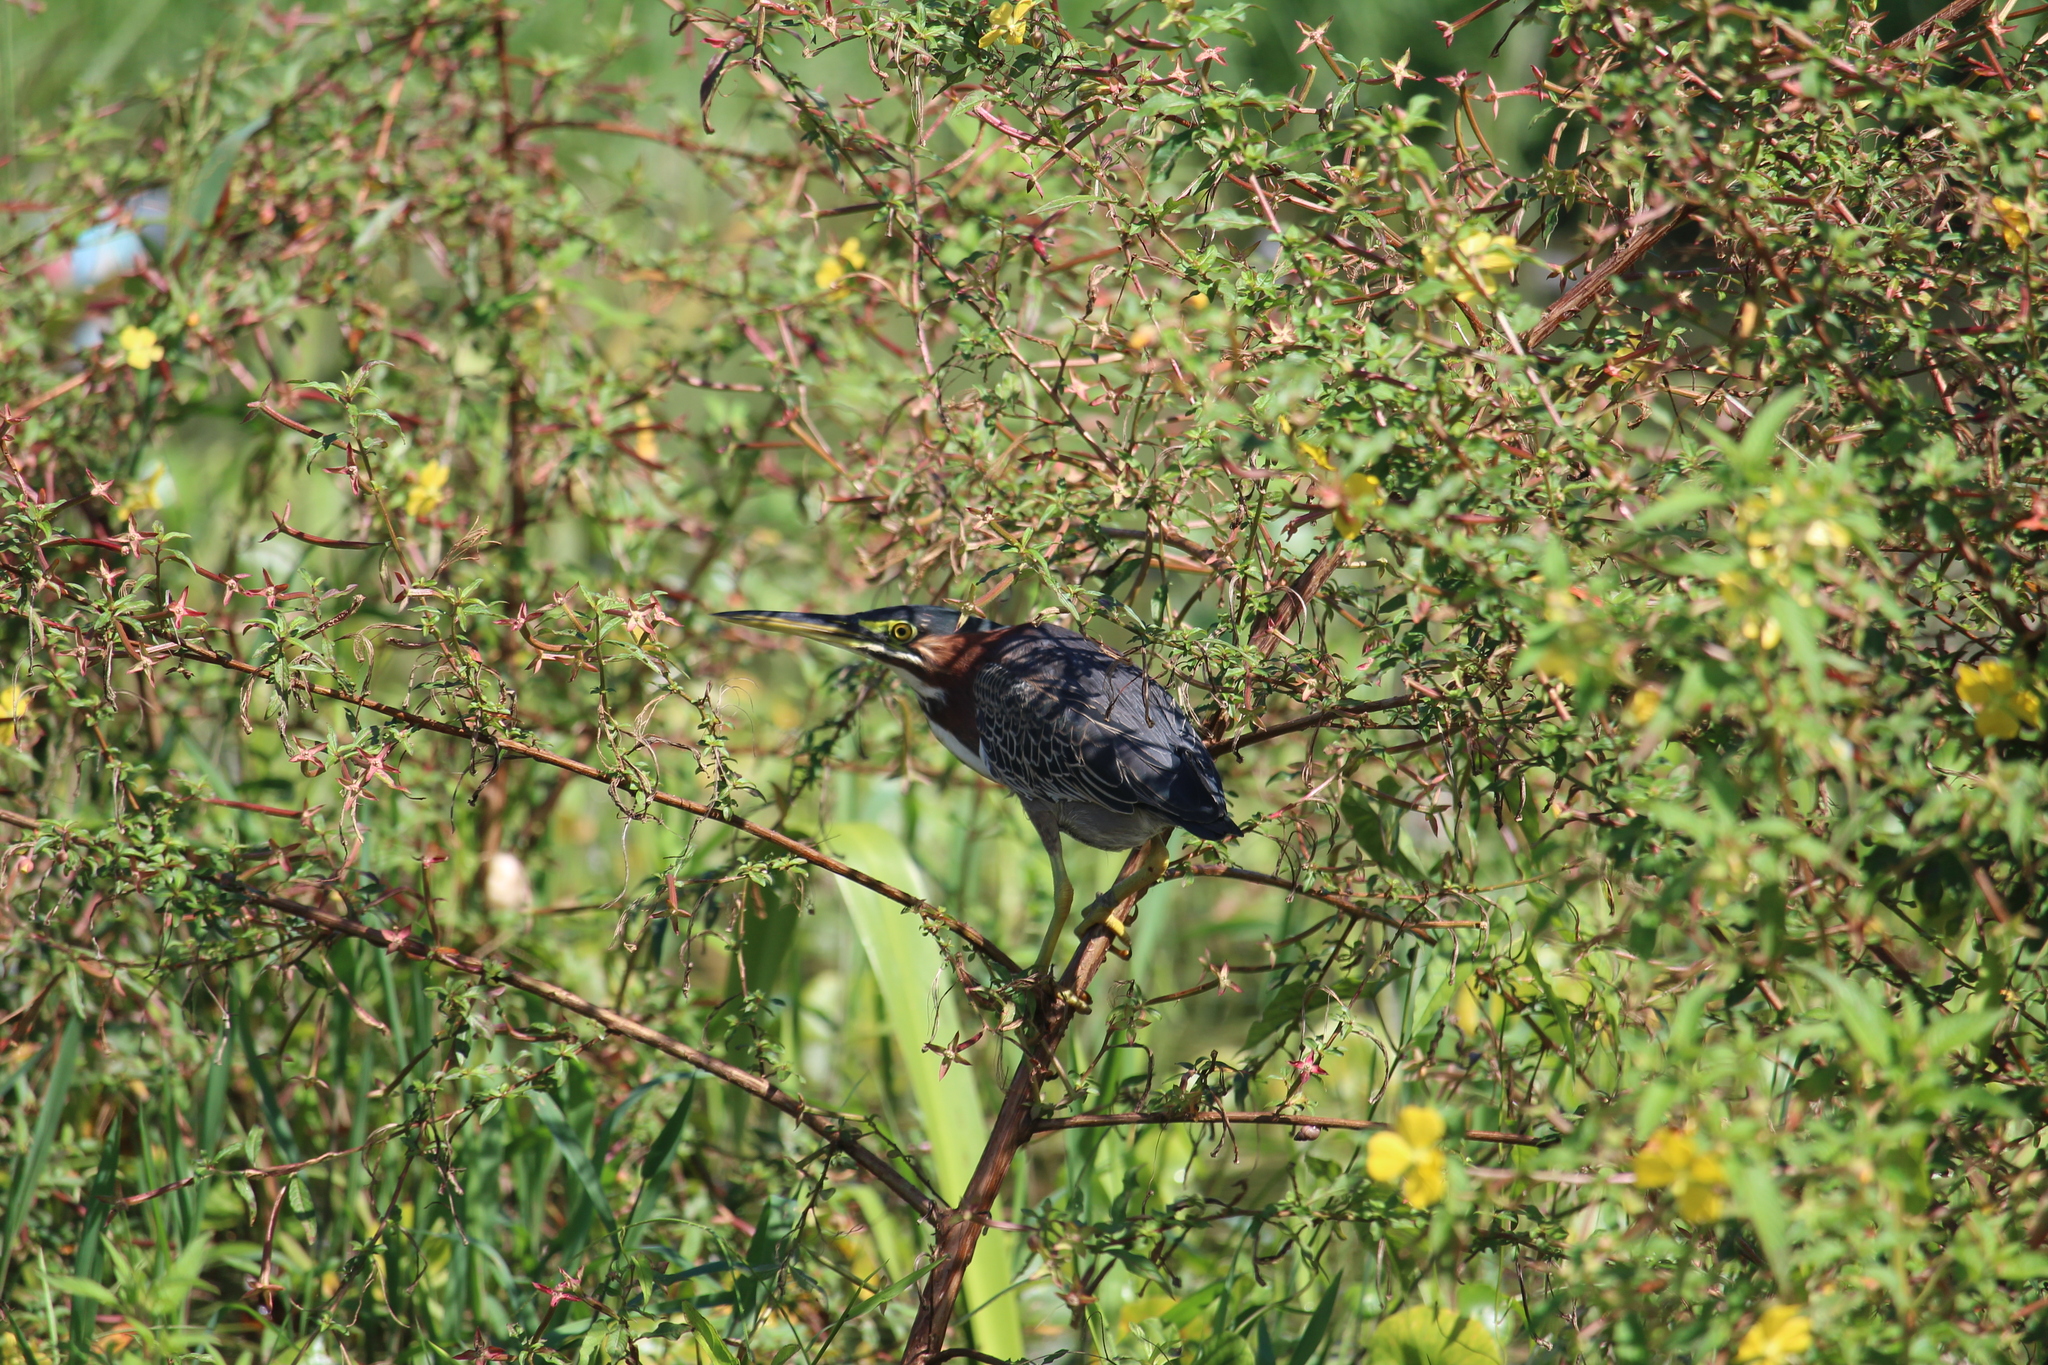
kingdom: Animalia
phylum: Chordata
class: Aves
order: Pelecaniformes
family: Ardeidae
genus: Butorides
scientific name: Butorides virescens
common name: Green heron
